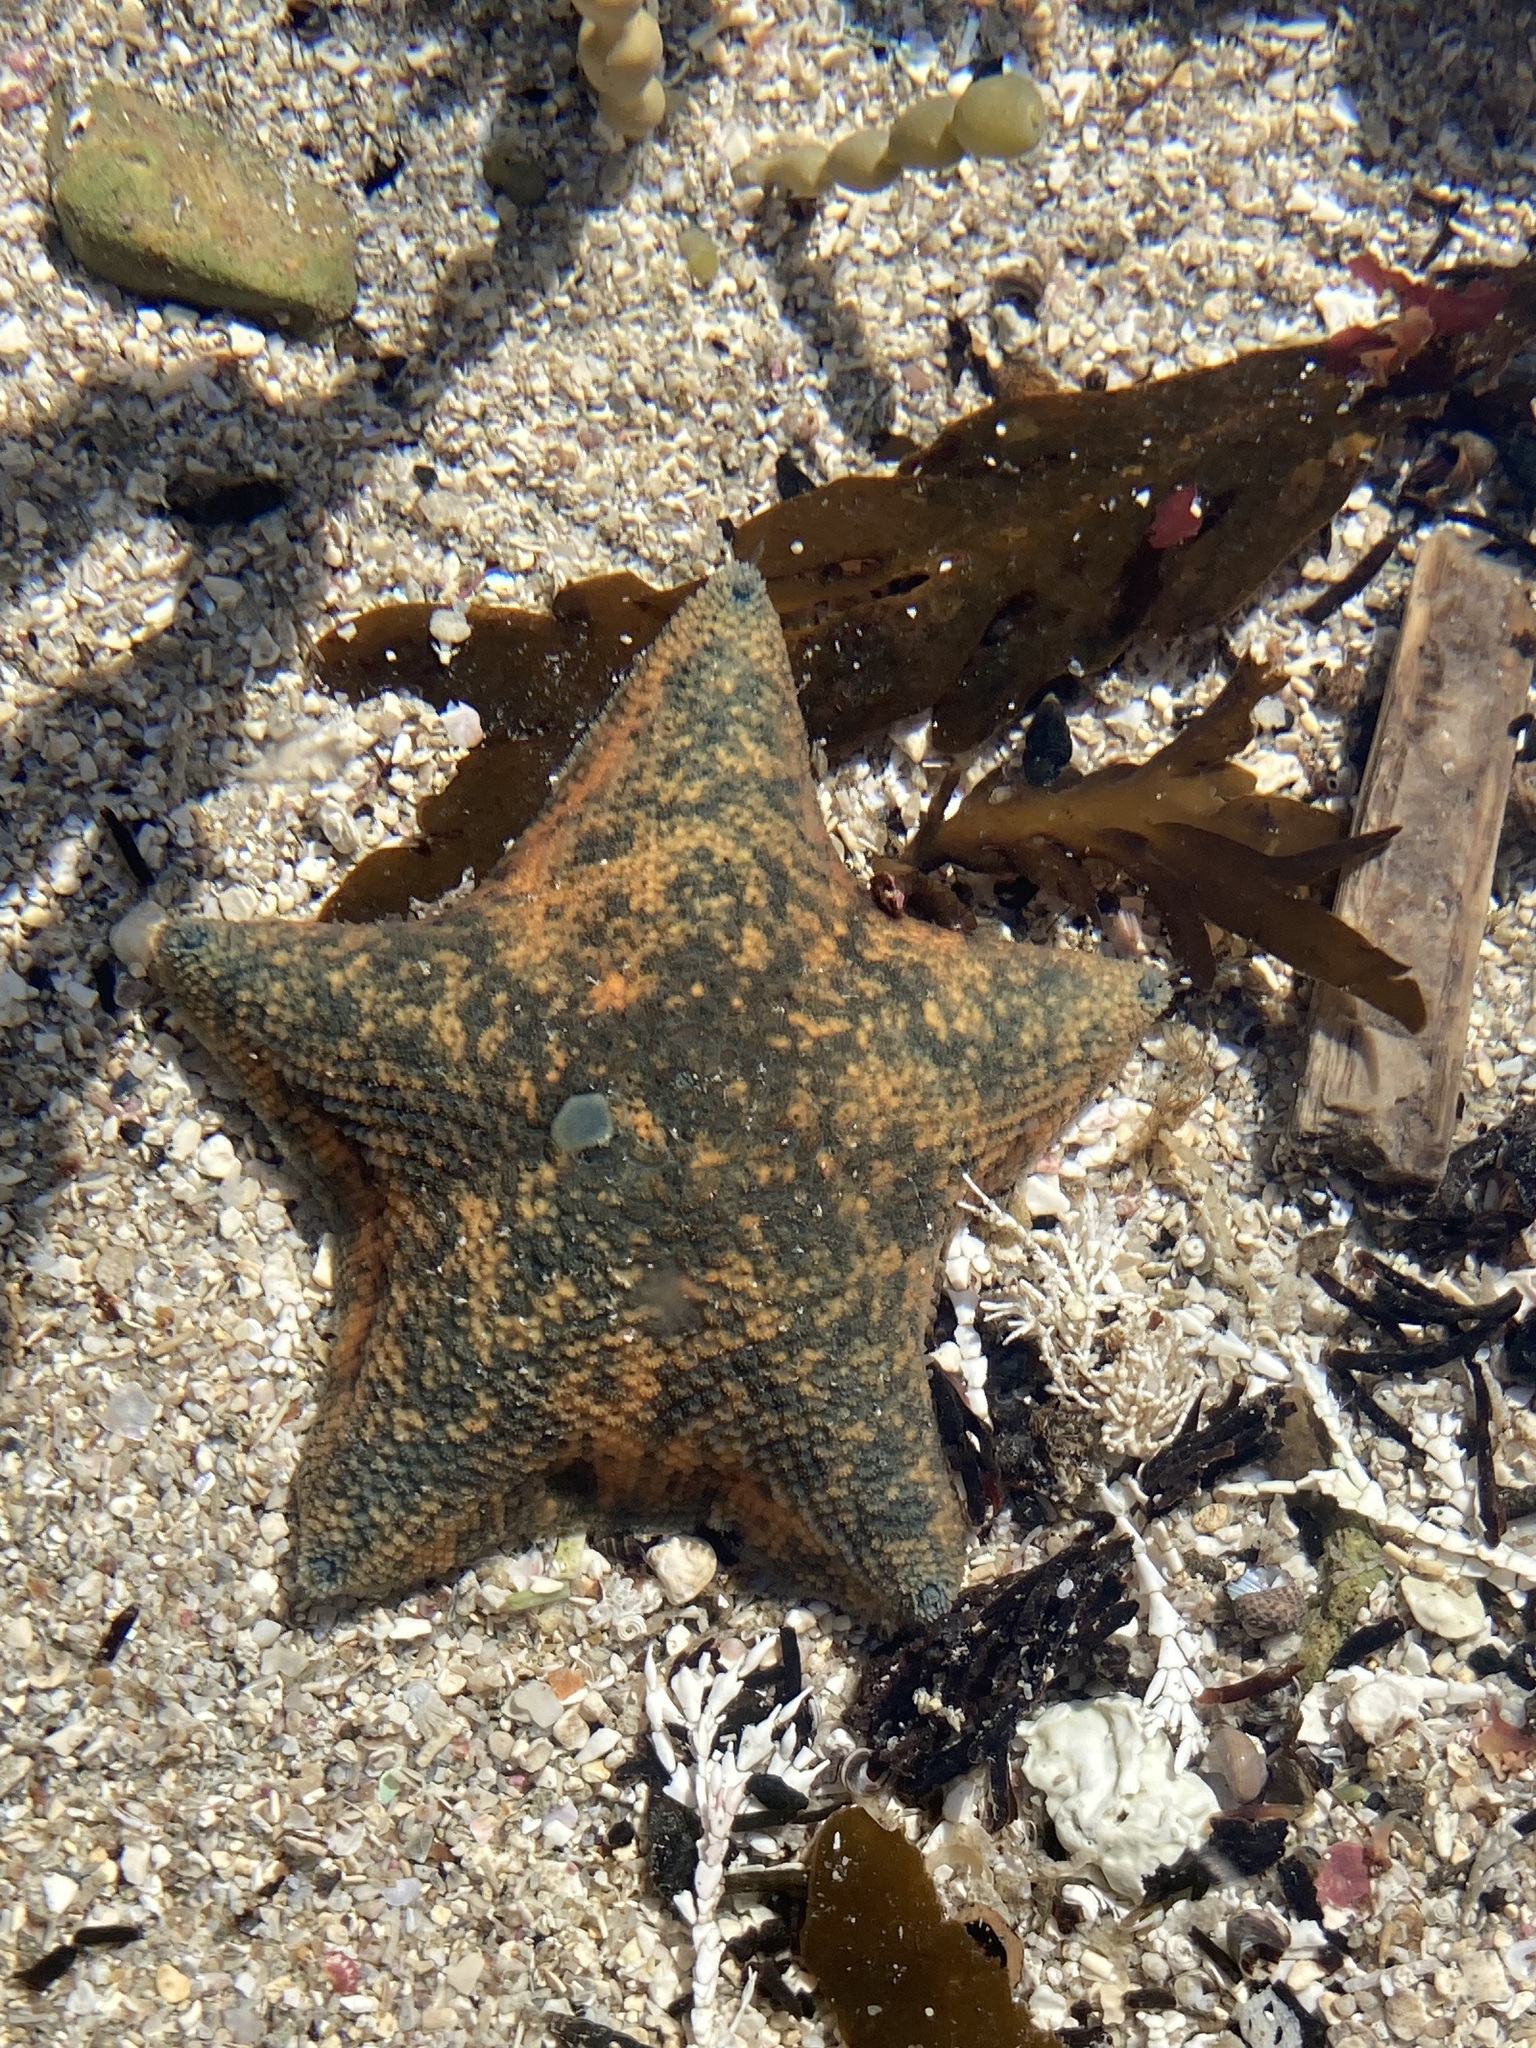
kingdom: Animalia
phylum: Echinodermata
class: Asteroidea
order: Valvatida
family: Asterinidae
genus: Patiriella
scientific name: Patiriella regularis
